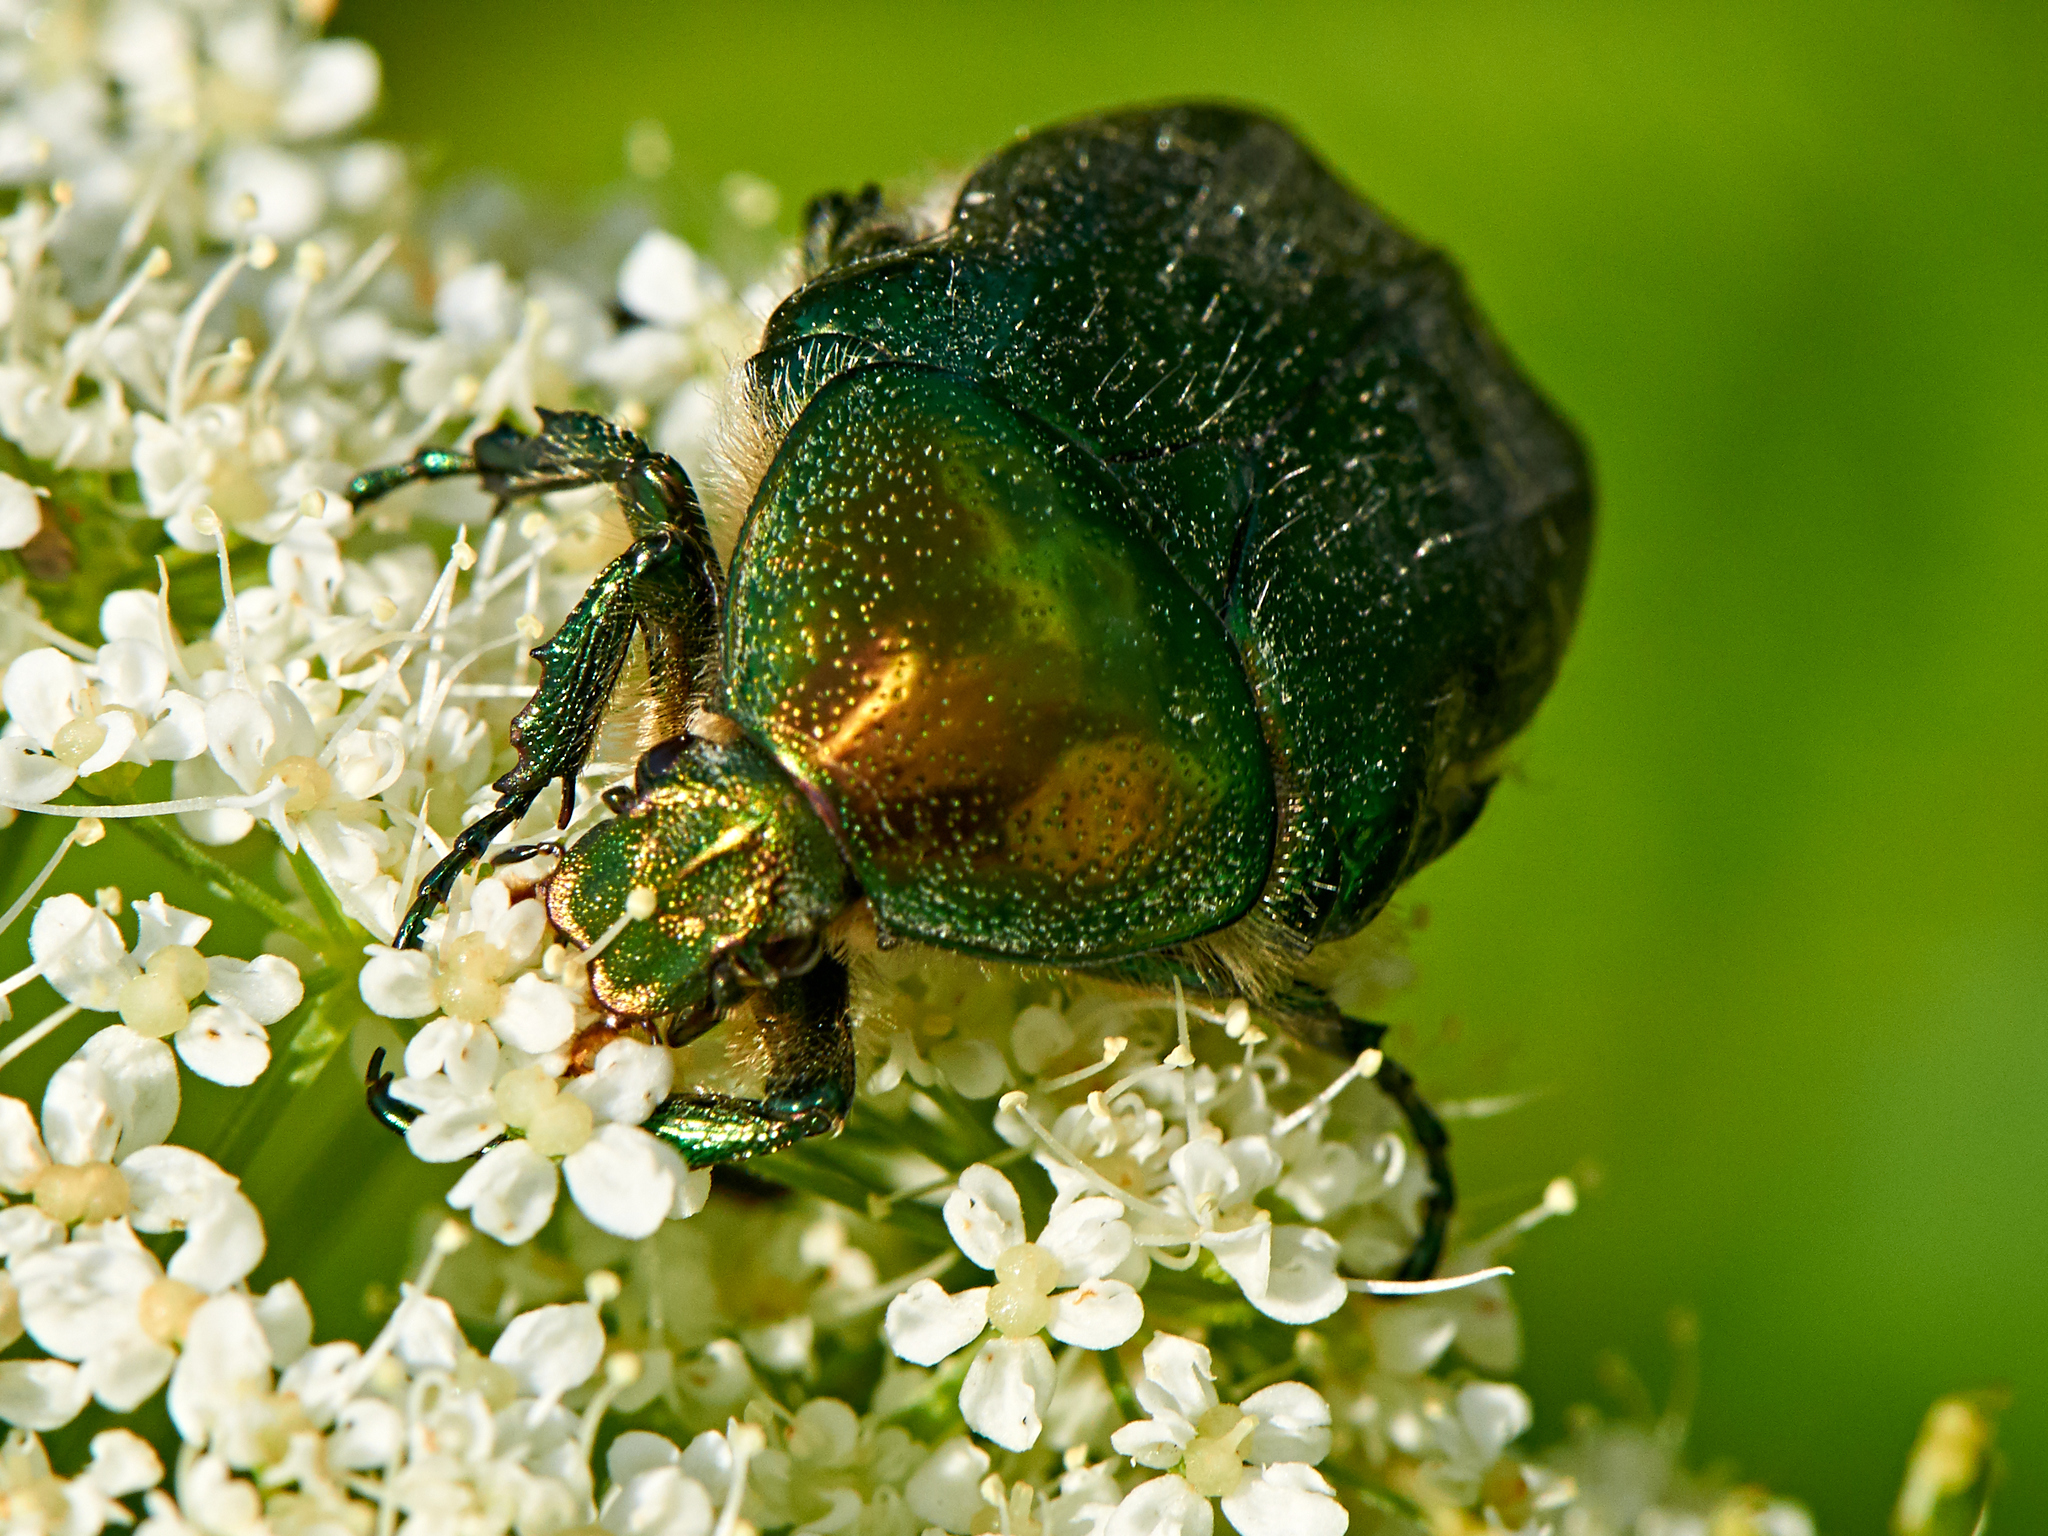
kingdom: Animalia
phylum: Arthropoda
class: Insecta
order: Coleoptera
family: Scarabaeidae
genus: Cetonia
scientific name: Cetonia aurata
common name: Rose chafer
